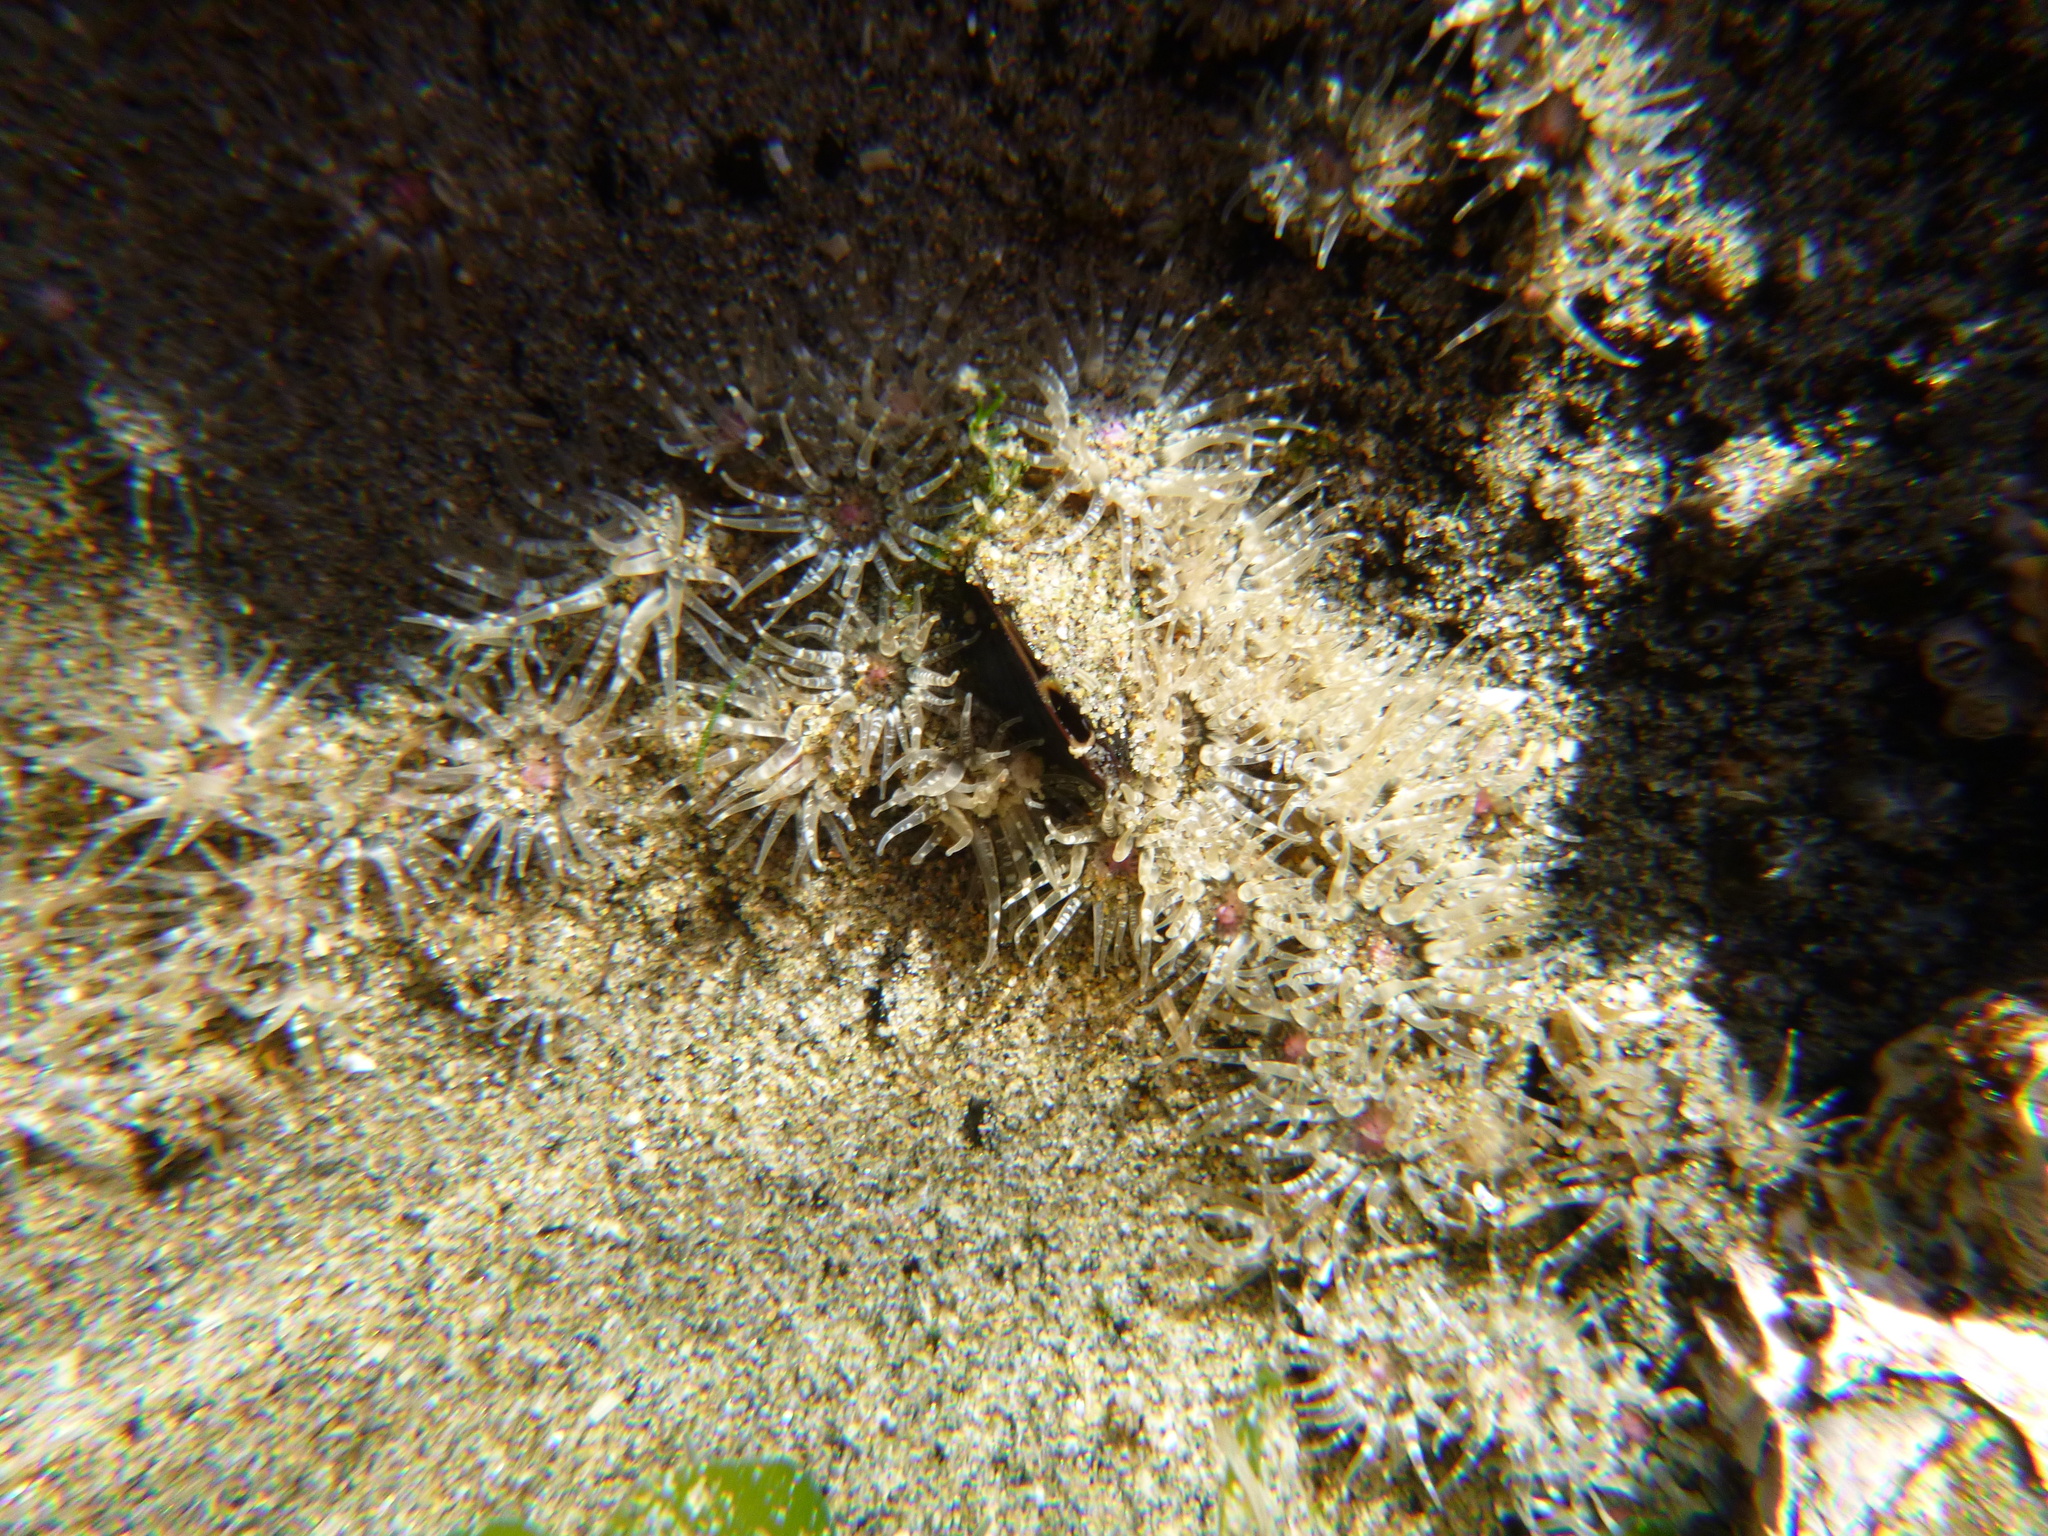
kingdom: Animalia
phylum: Cnidaria
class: Anthozoa
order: Actiniaria
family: Actiniidae
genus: Anthopleura
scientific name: Anthopleura minima
